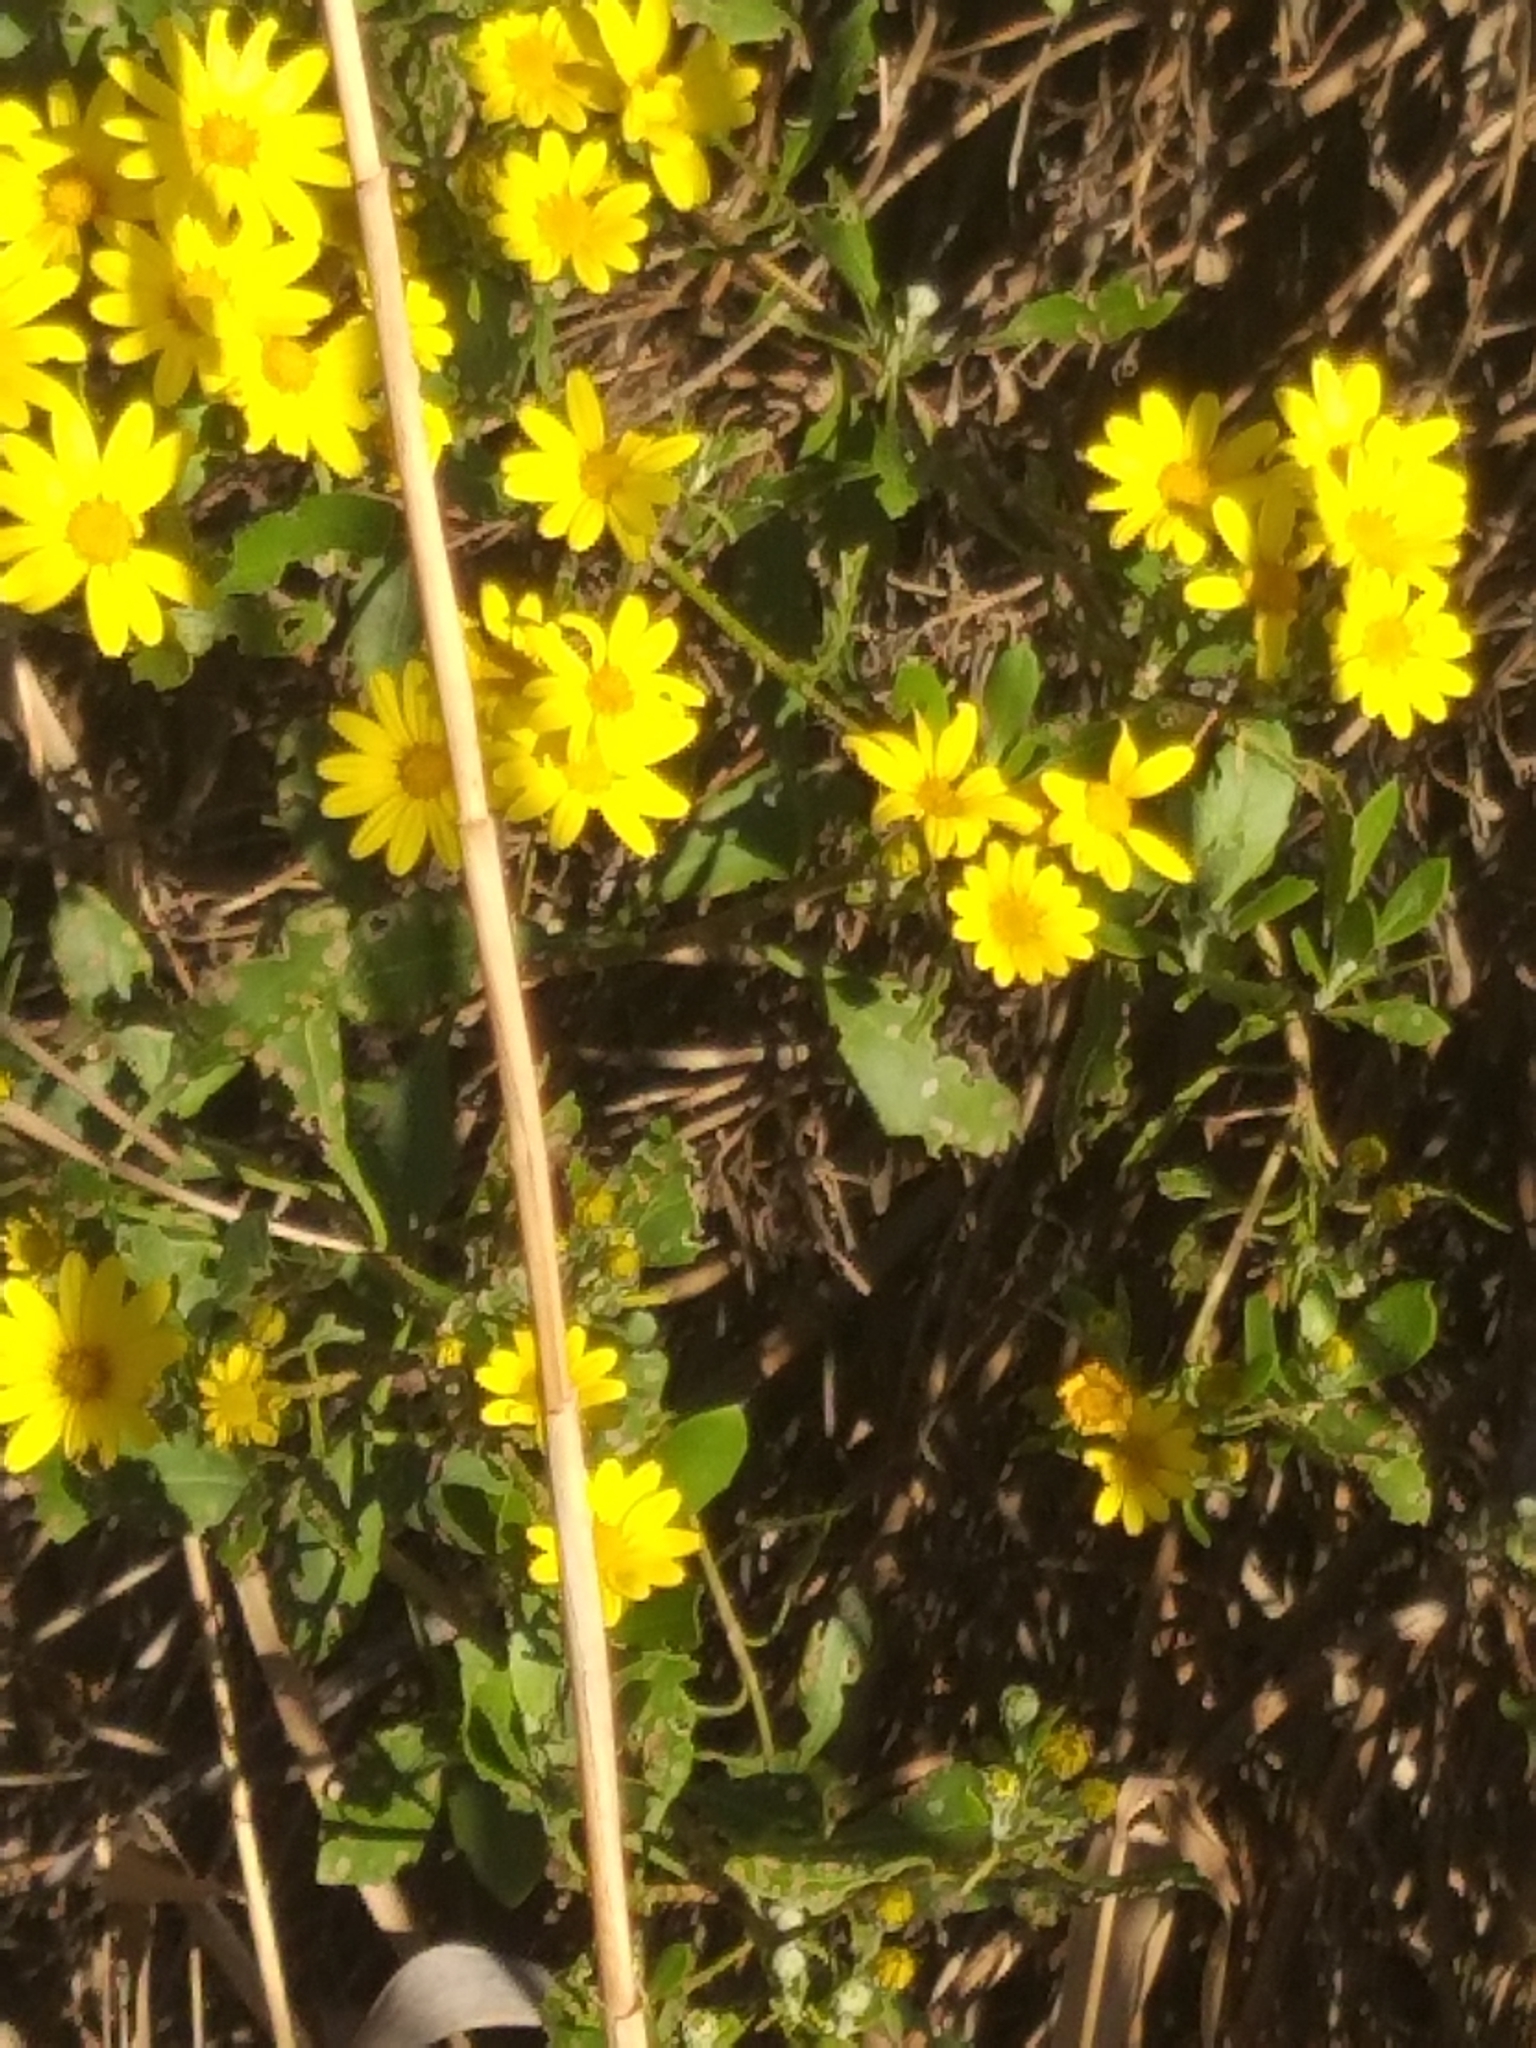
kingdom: Plantae
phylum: Tracheophyta
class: Magnoliopsida
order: Asterales
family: Asteraceae
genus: Osteospermum
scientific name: Osteospermum moniliferum
